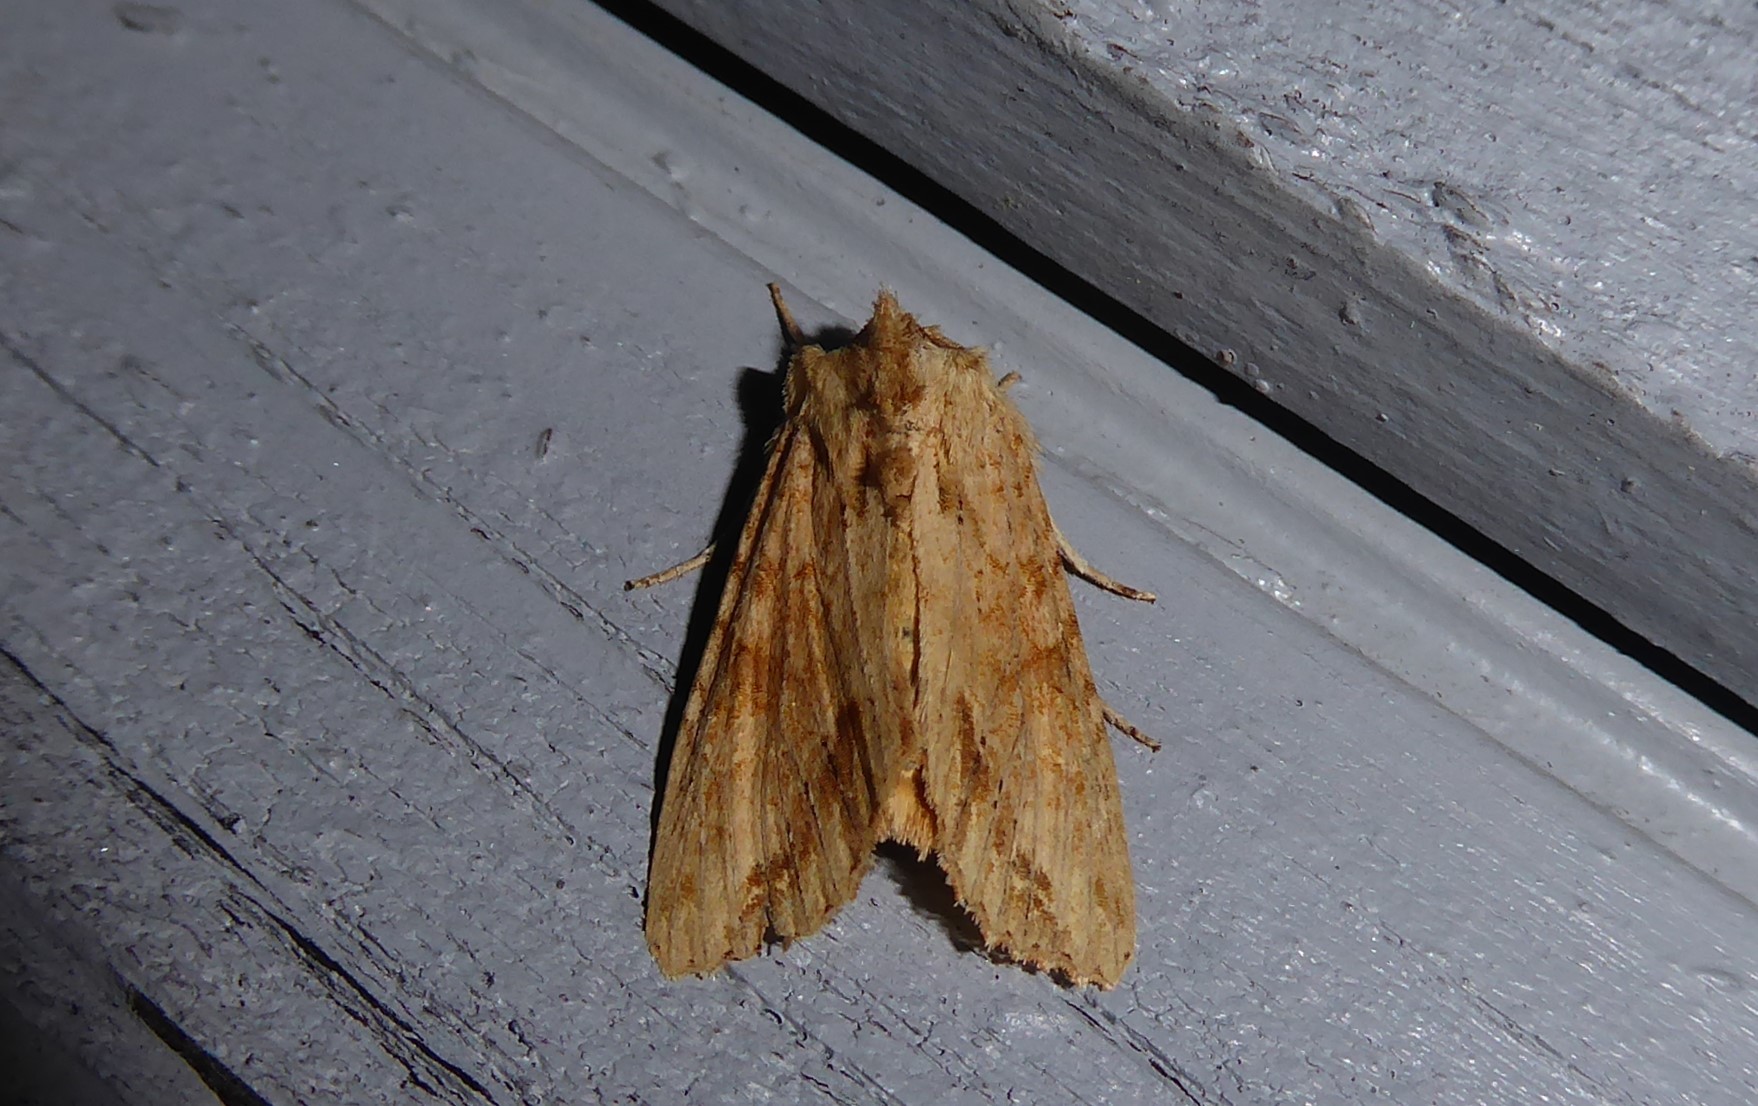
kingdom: Animalia
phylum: Arthropoda
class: Insecta
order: Lepidoptera
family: Noctuidae
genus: Ichneutica
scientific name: Ichneutica mollis
